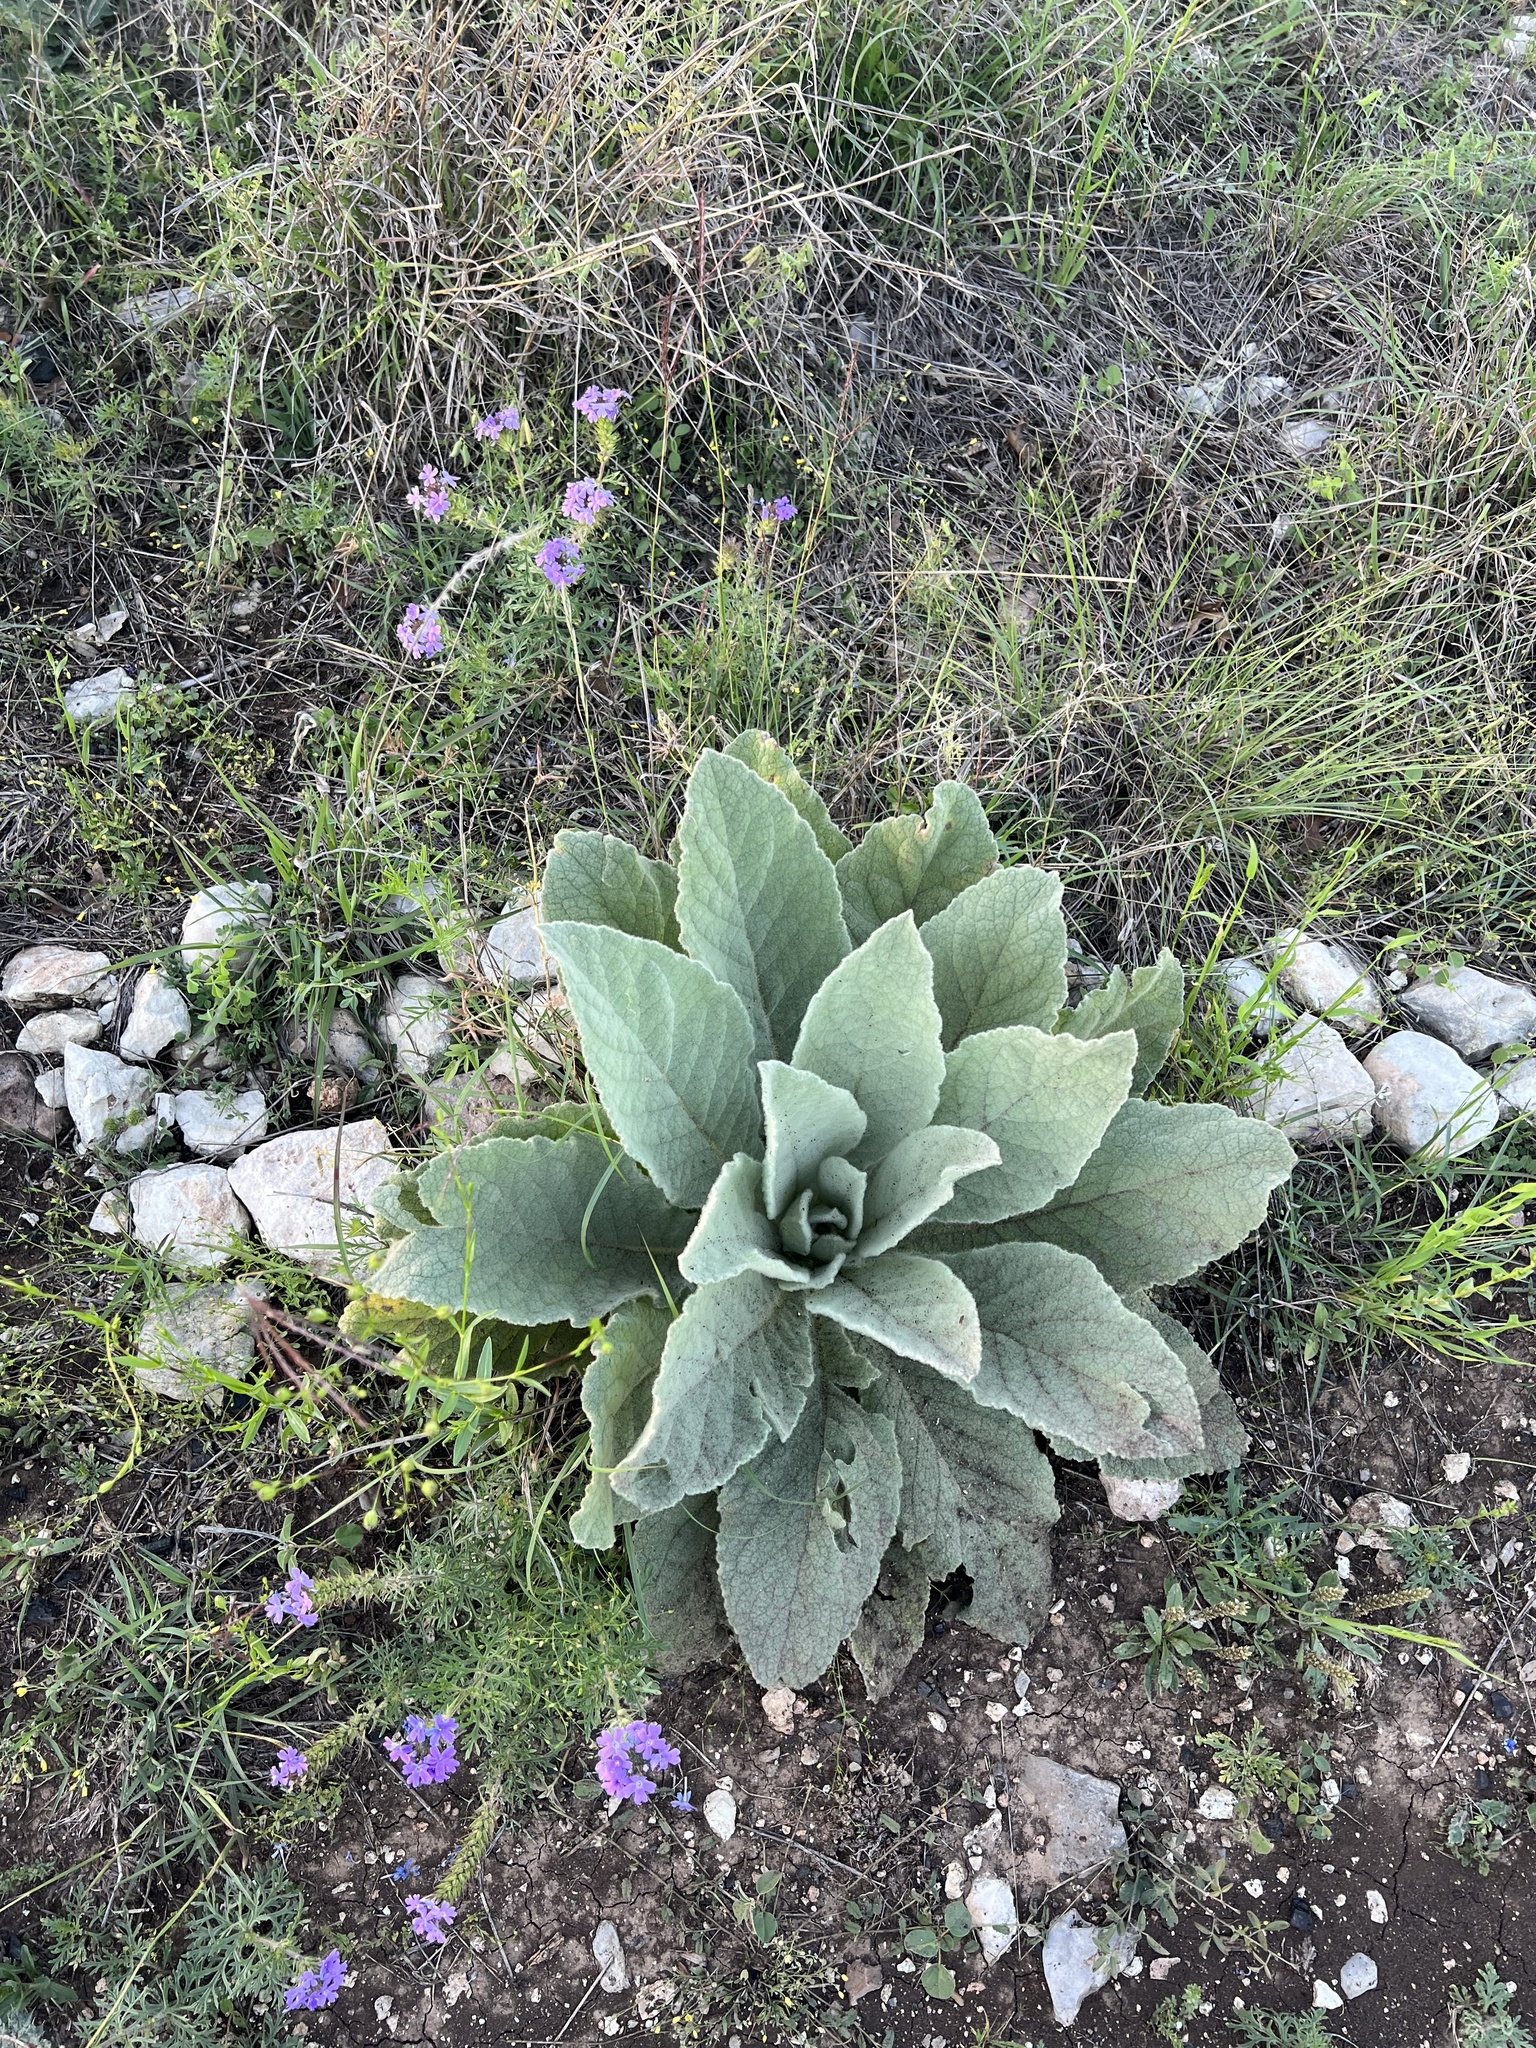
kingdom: Plantae
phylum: Tracheophyta
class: Magnoliopsida
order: Lamiales
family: Scrophulariaceae
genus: Verbascum
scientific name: Verbascum thapsus
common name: Common mullein
